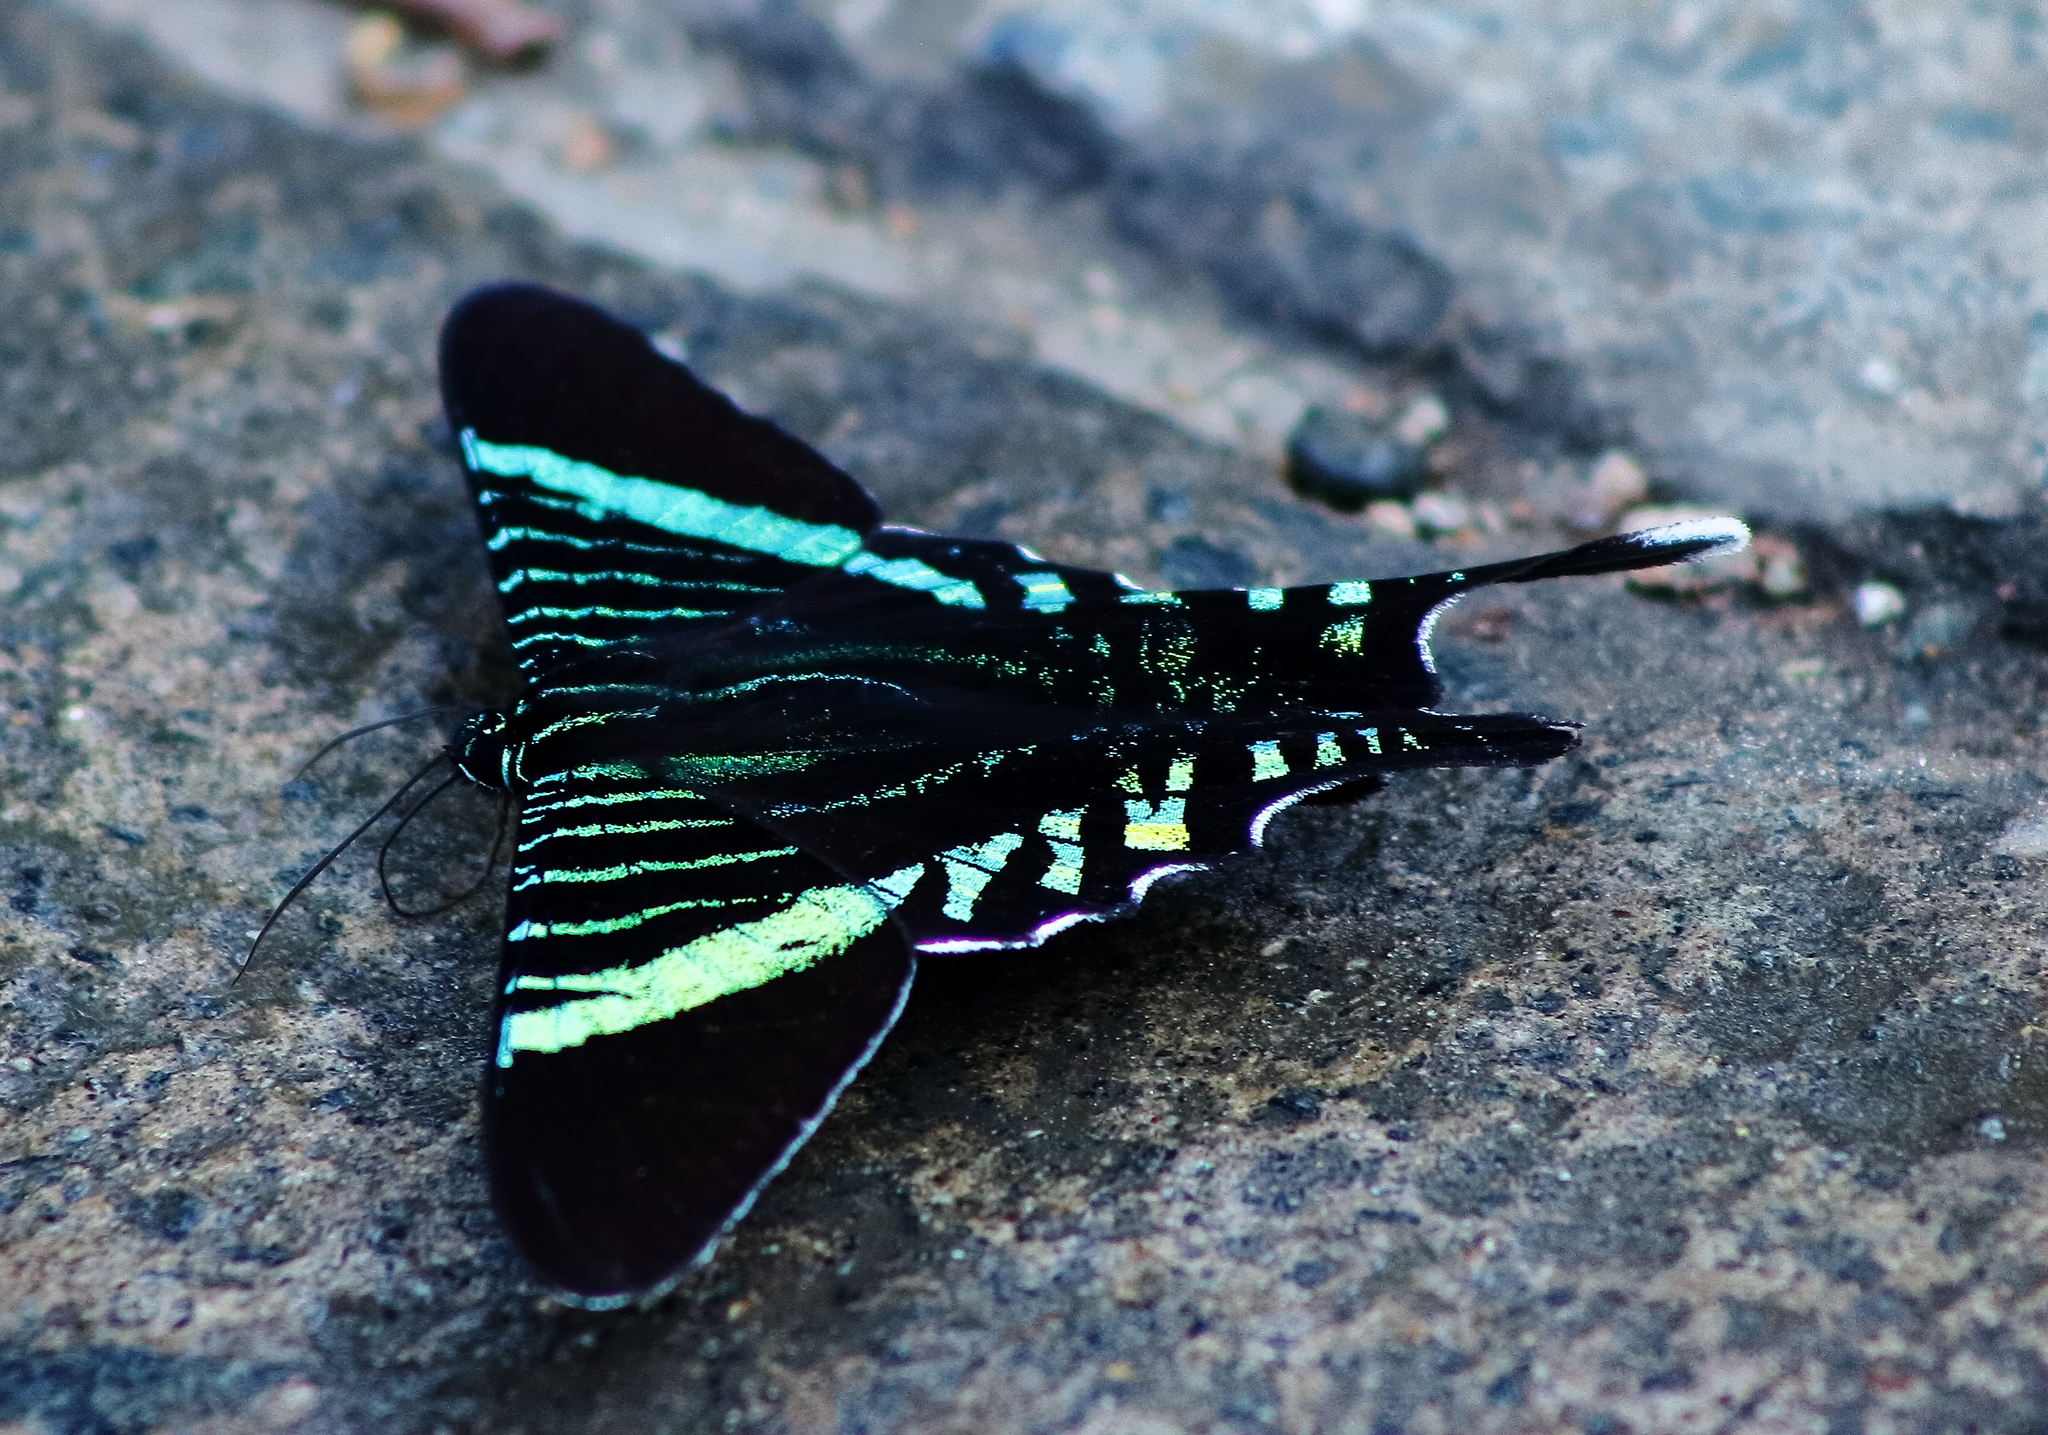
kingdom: Animalia
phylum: Arthropoda
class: Insecta
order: Lepidoptera
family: Uraniidae
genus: Urania
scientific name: Urania fulgens
